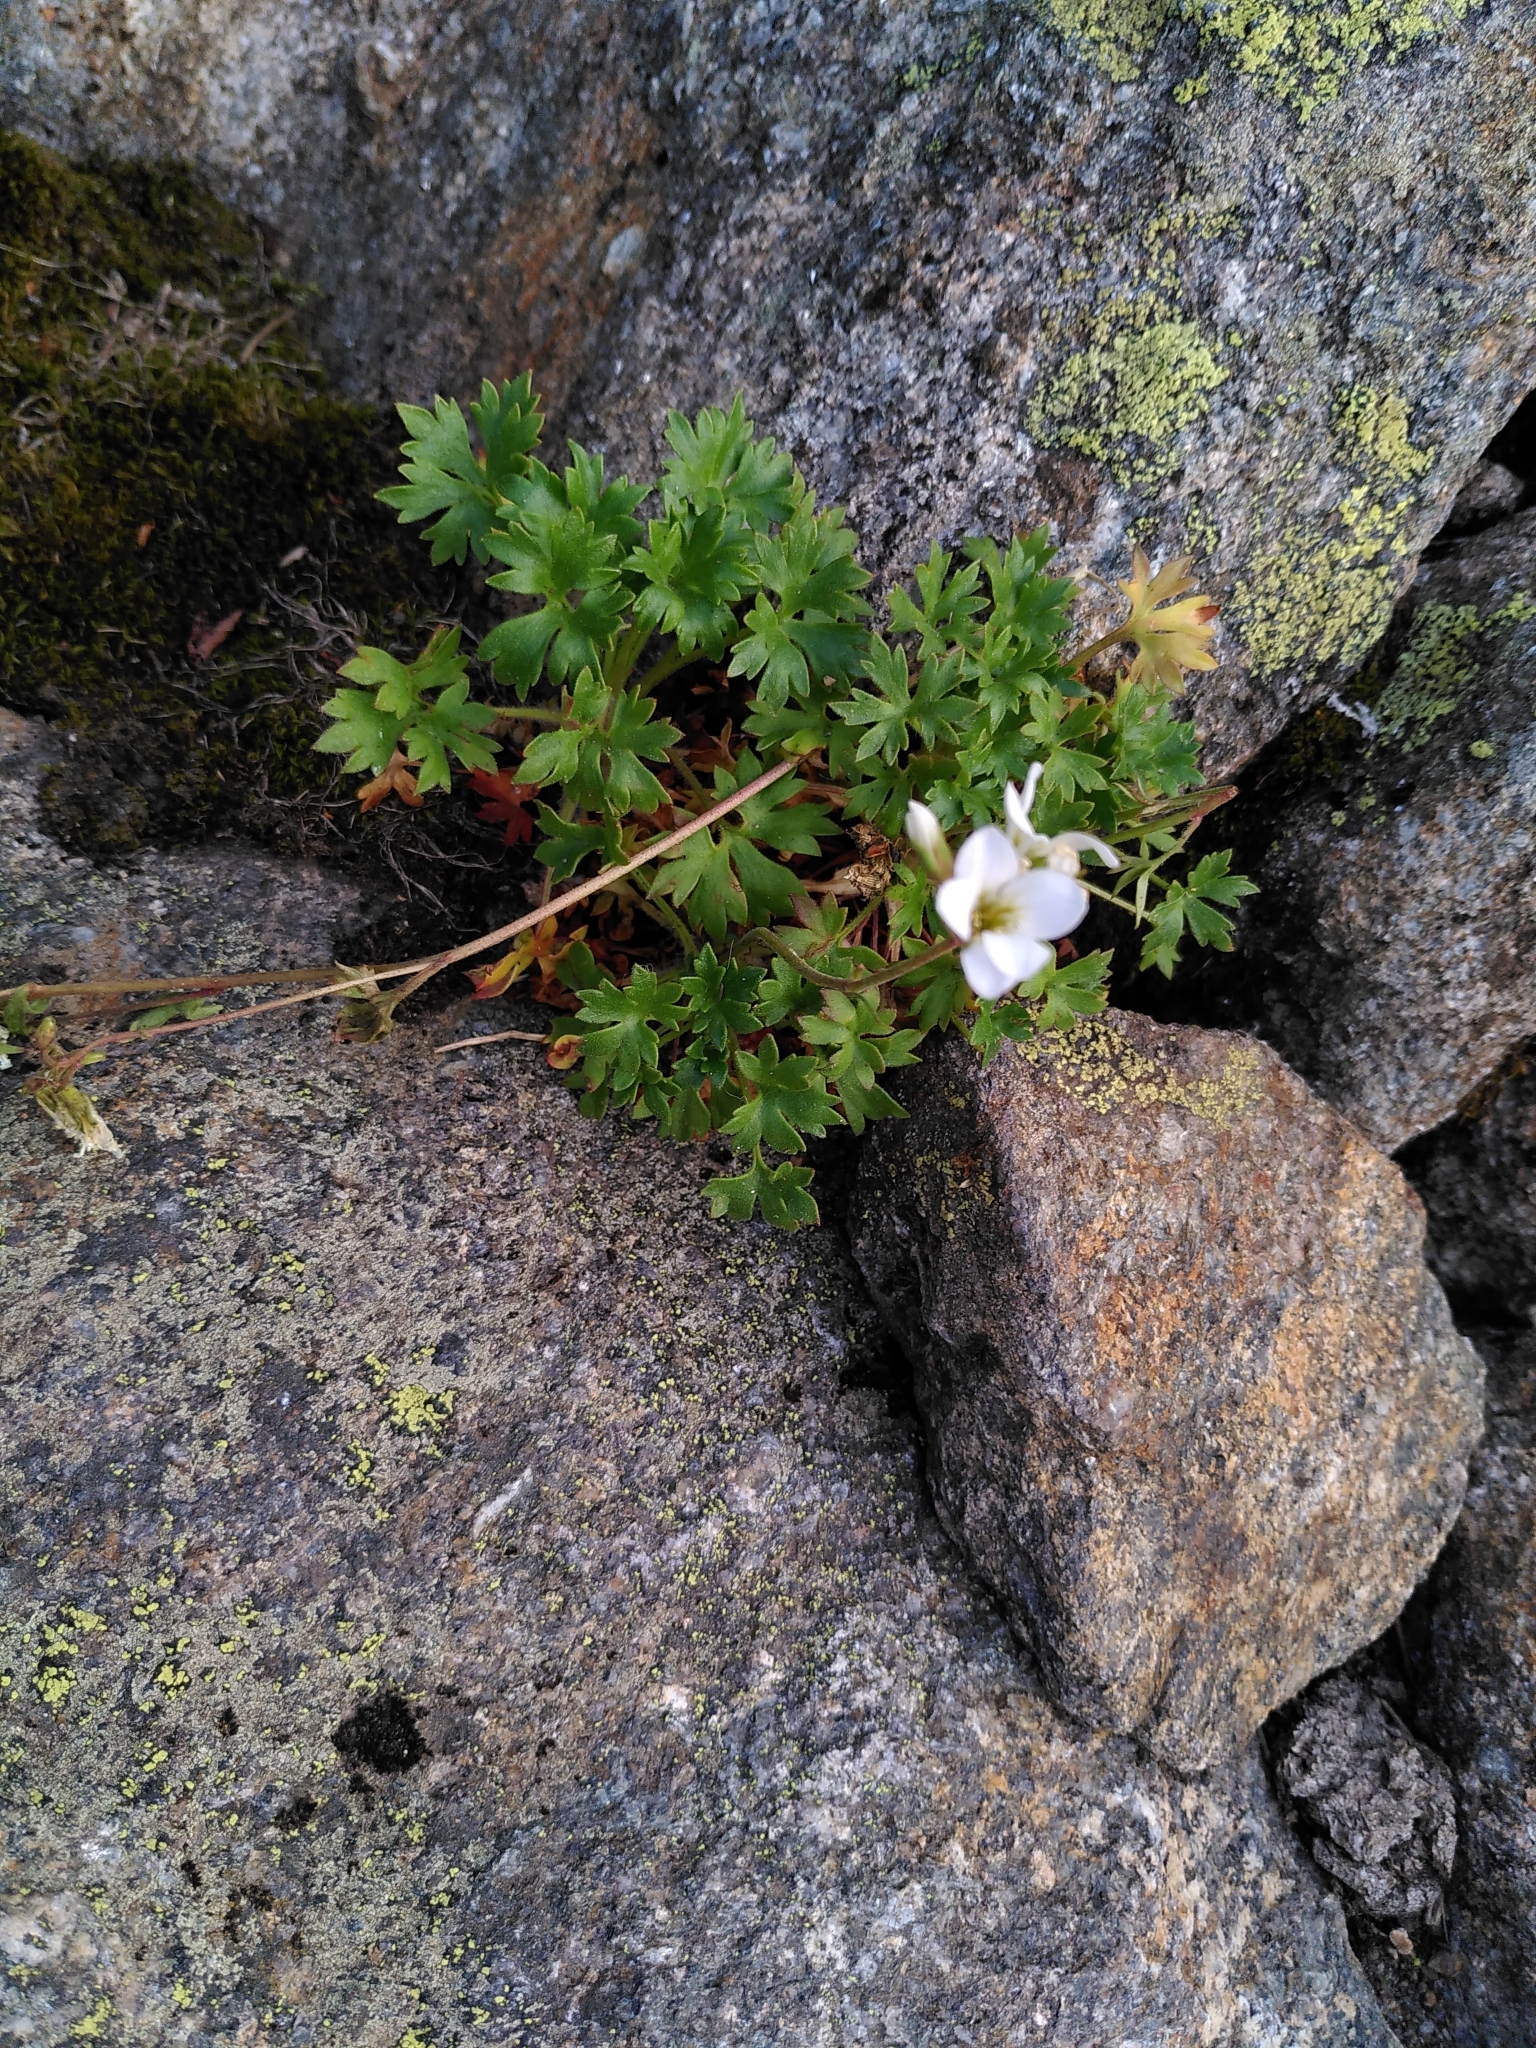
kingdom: Plantae
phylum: Tracheophyta
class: Magnoliopsida
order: Saxifragales
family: Saxifragaceae
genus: Saxifraga
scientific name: Saxifraga geranioides
